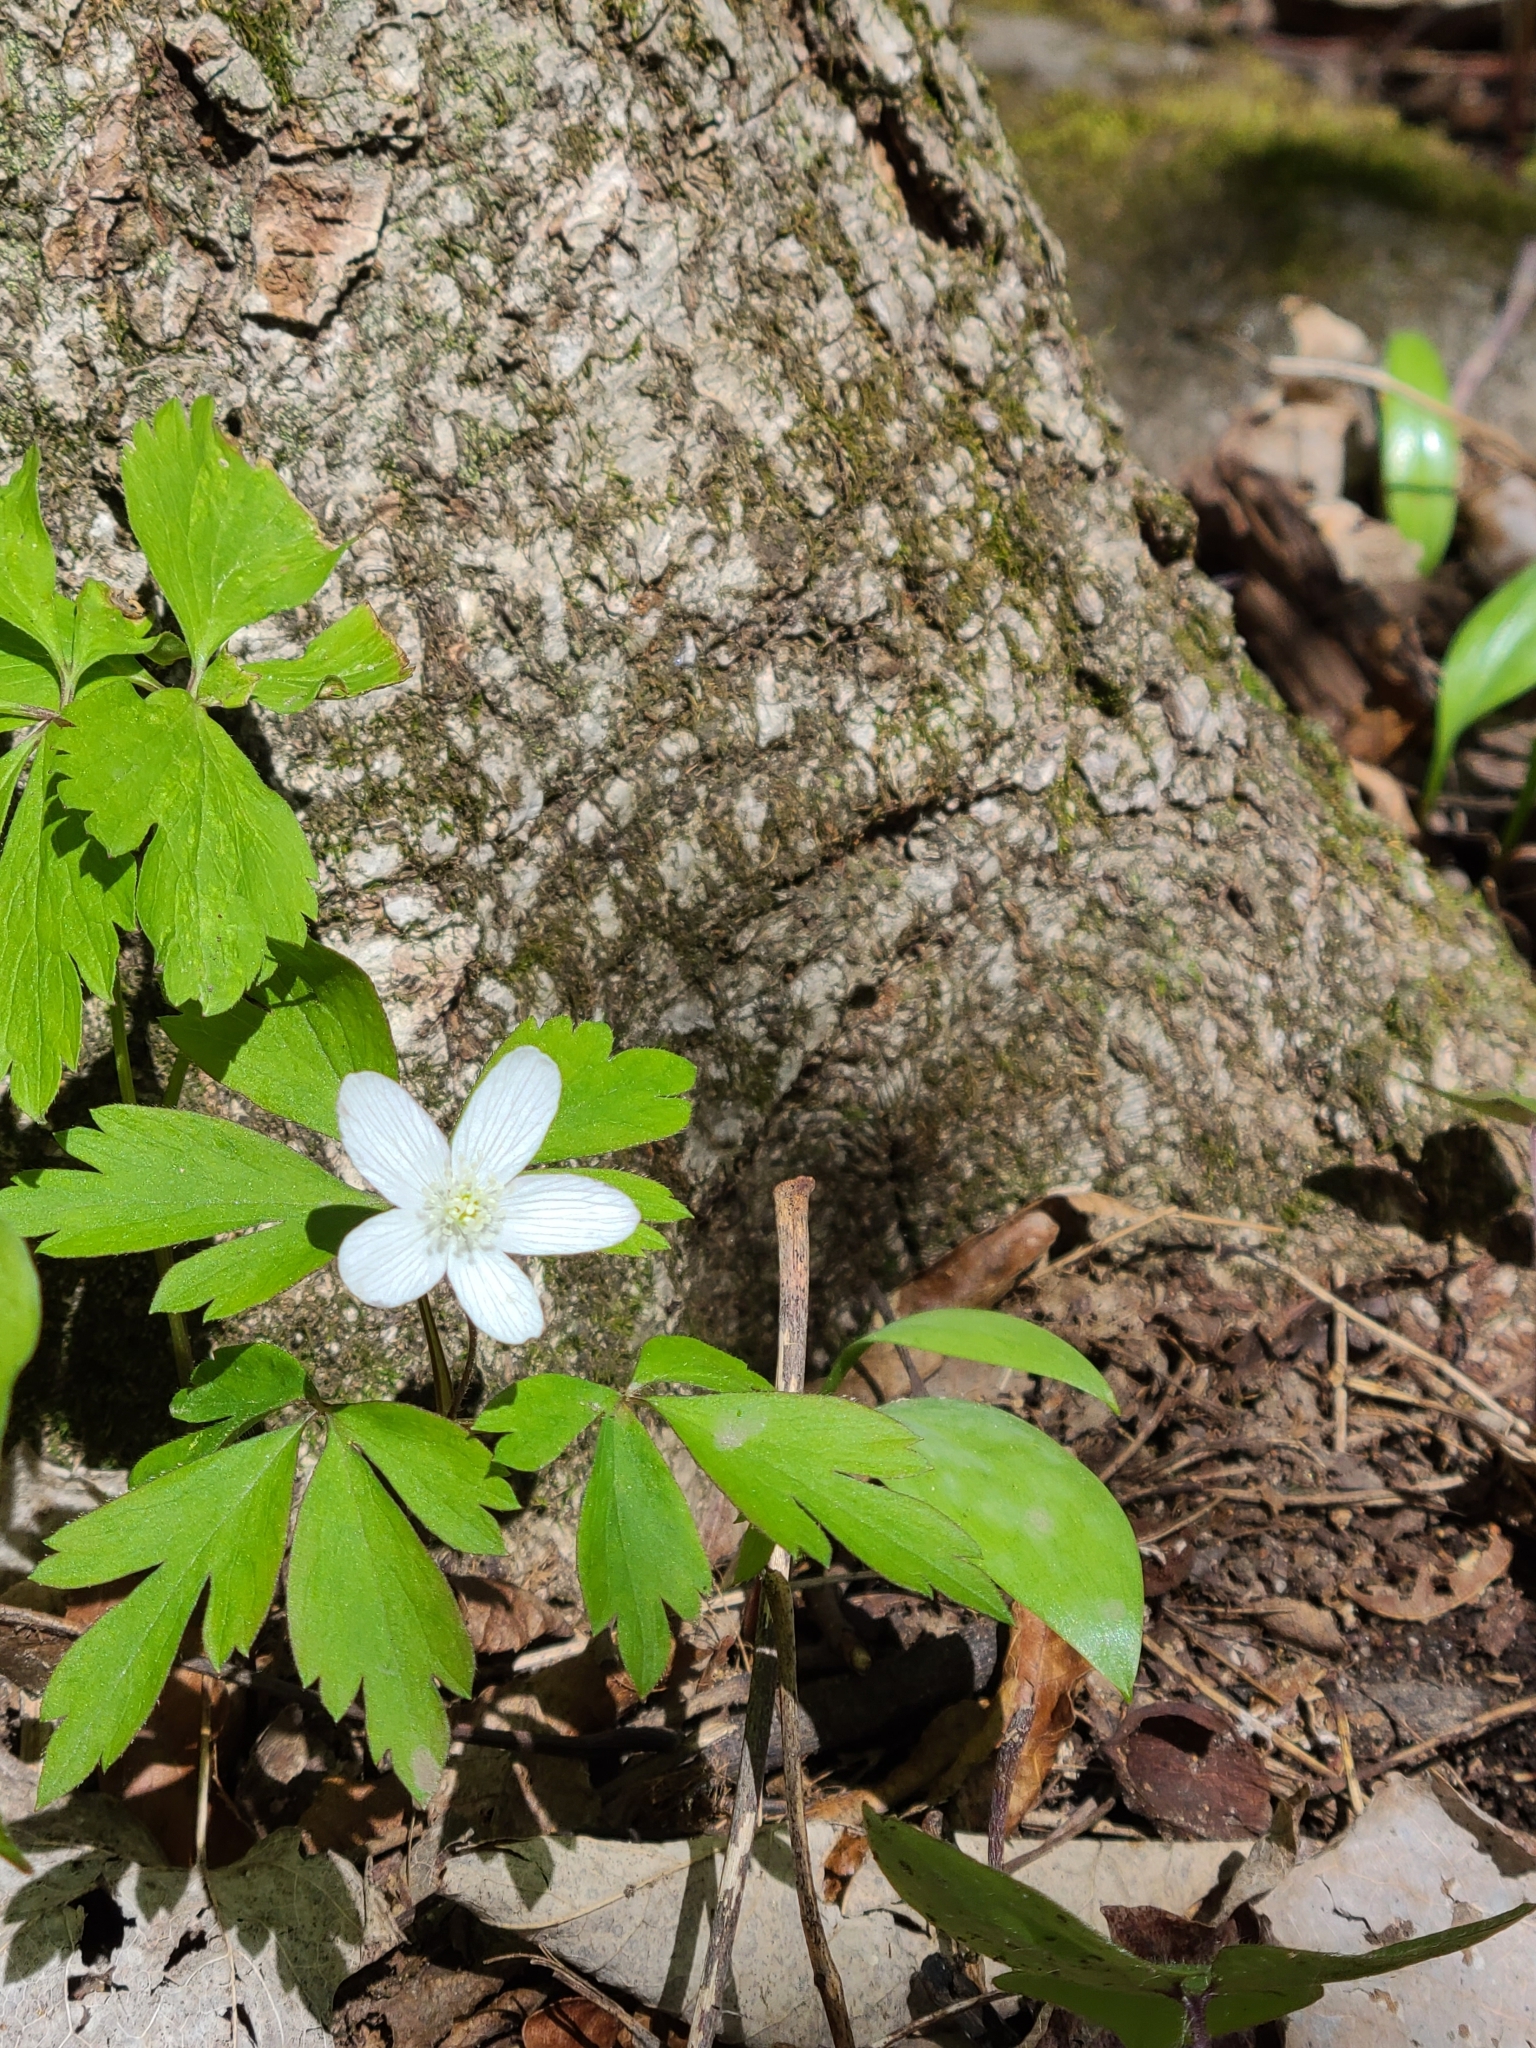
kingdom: Plantae
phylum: Tracheophyta
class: Magnoliopsida
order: Ranunculales
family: Ranunculaceae
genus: Anemone
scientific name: Anemone quinquefolia
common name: Wood anemone
